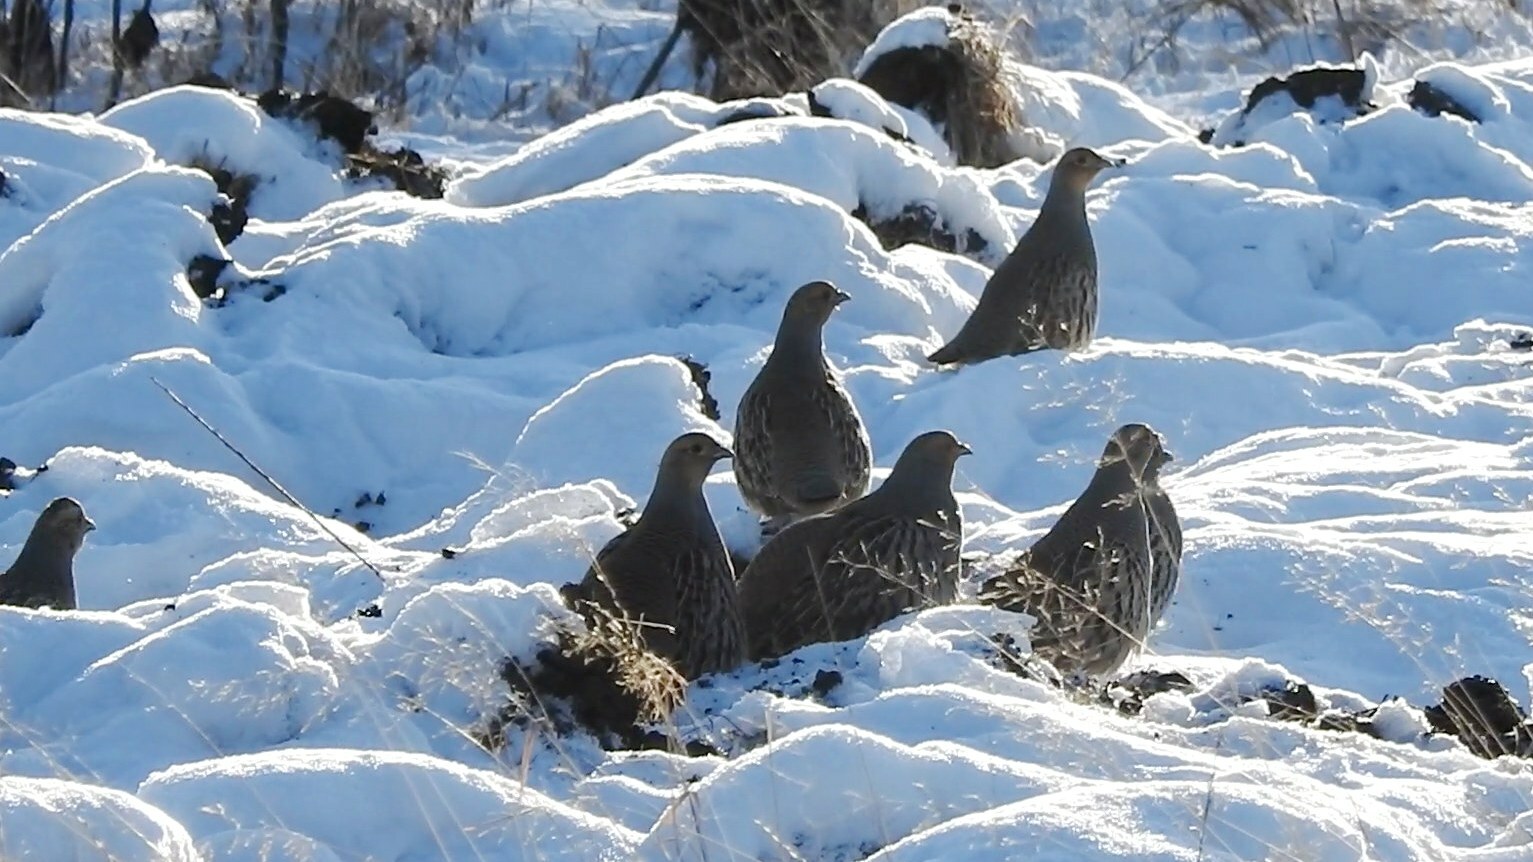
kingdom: Animalia
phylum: Chordata
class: Aves
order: Galliformes
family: Phasianidae
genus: Perdix
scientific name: Perdix dauurica
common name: Daurian partridge
